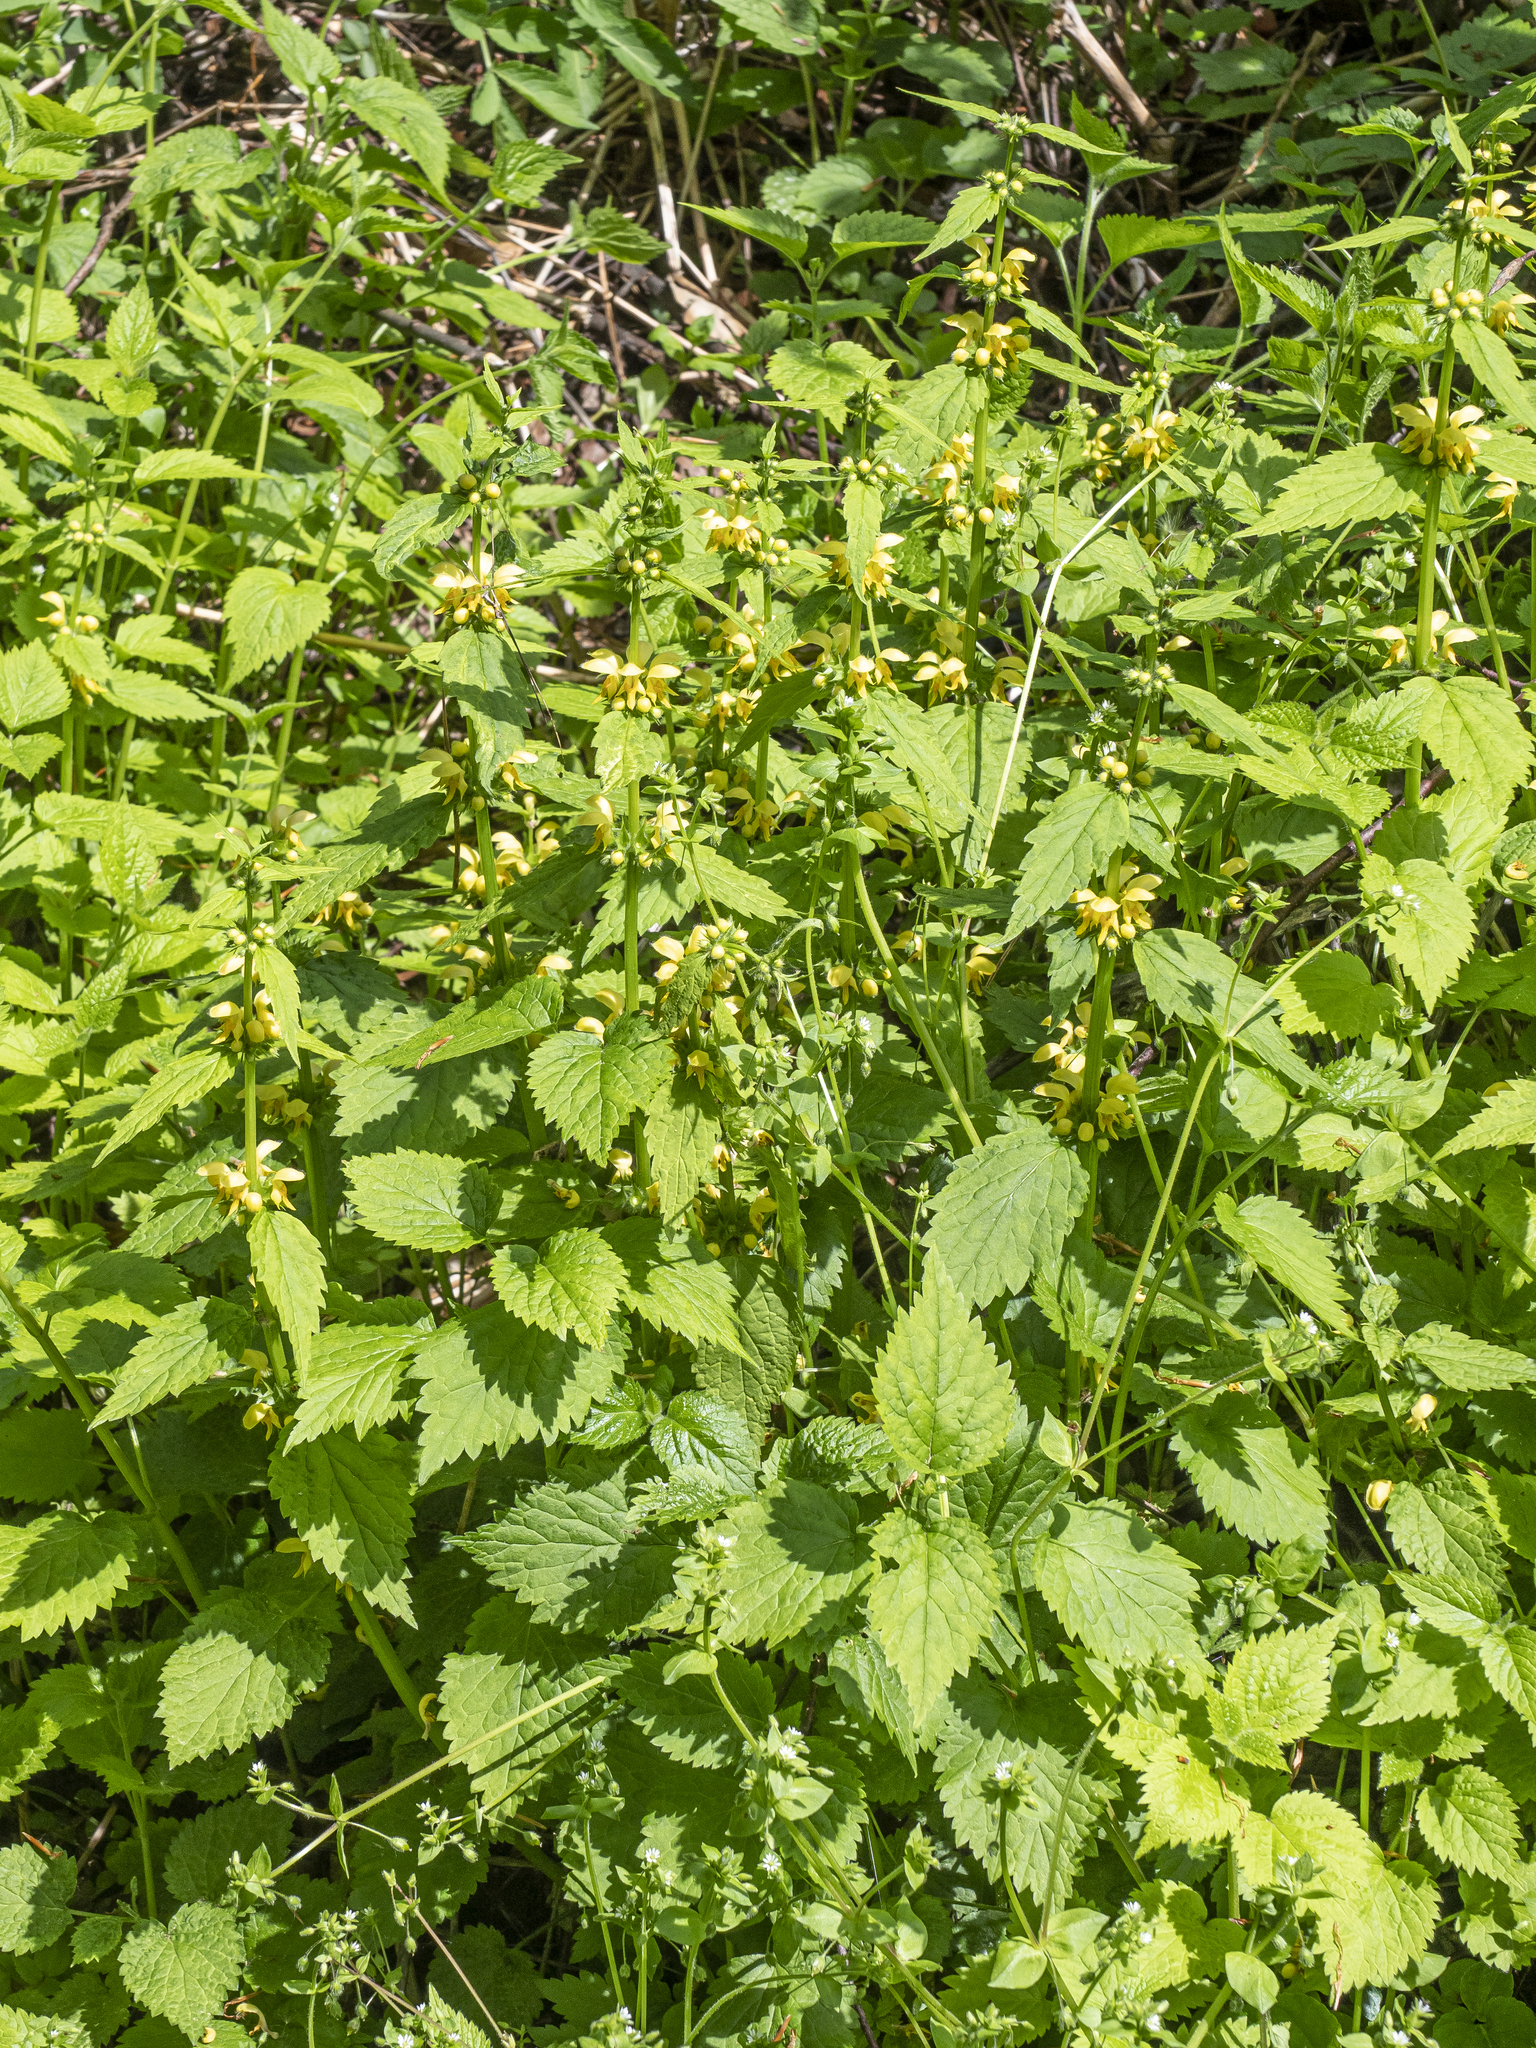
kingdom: Plantae
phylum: Tracheophyta
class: Magnoliopsida
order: Lamiales
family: Lamiaceae
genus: Lamium
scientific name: Lamium galeobdolon
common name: Yellow archangel
